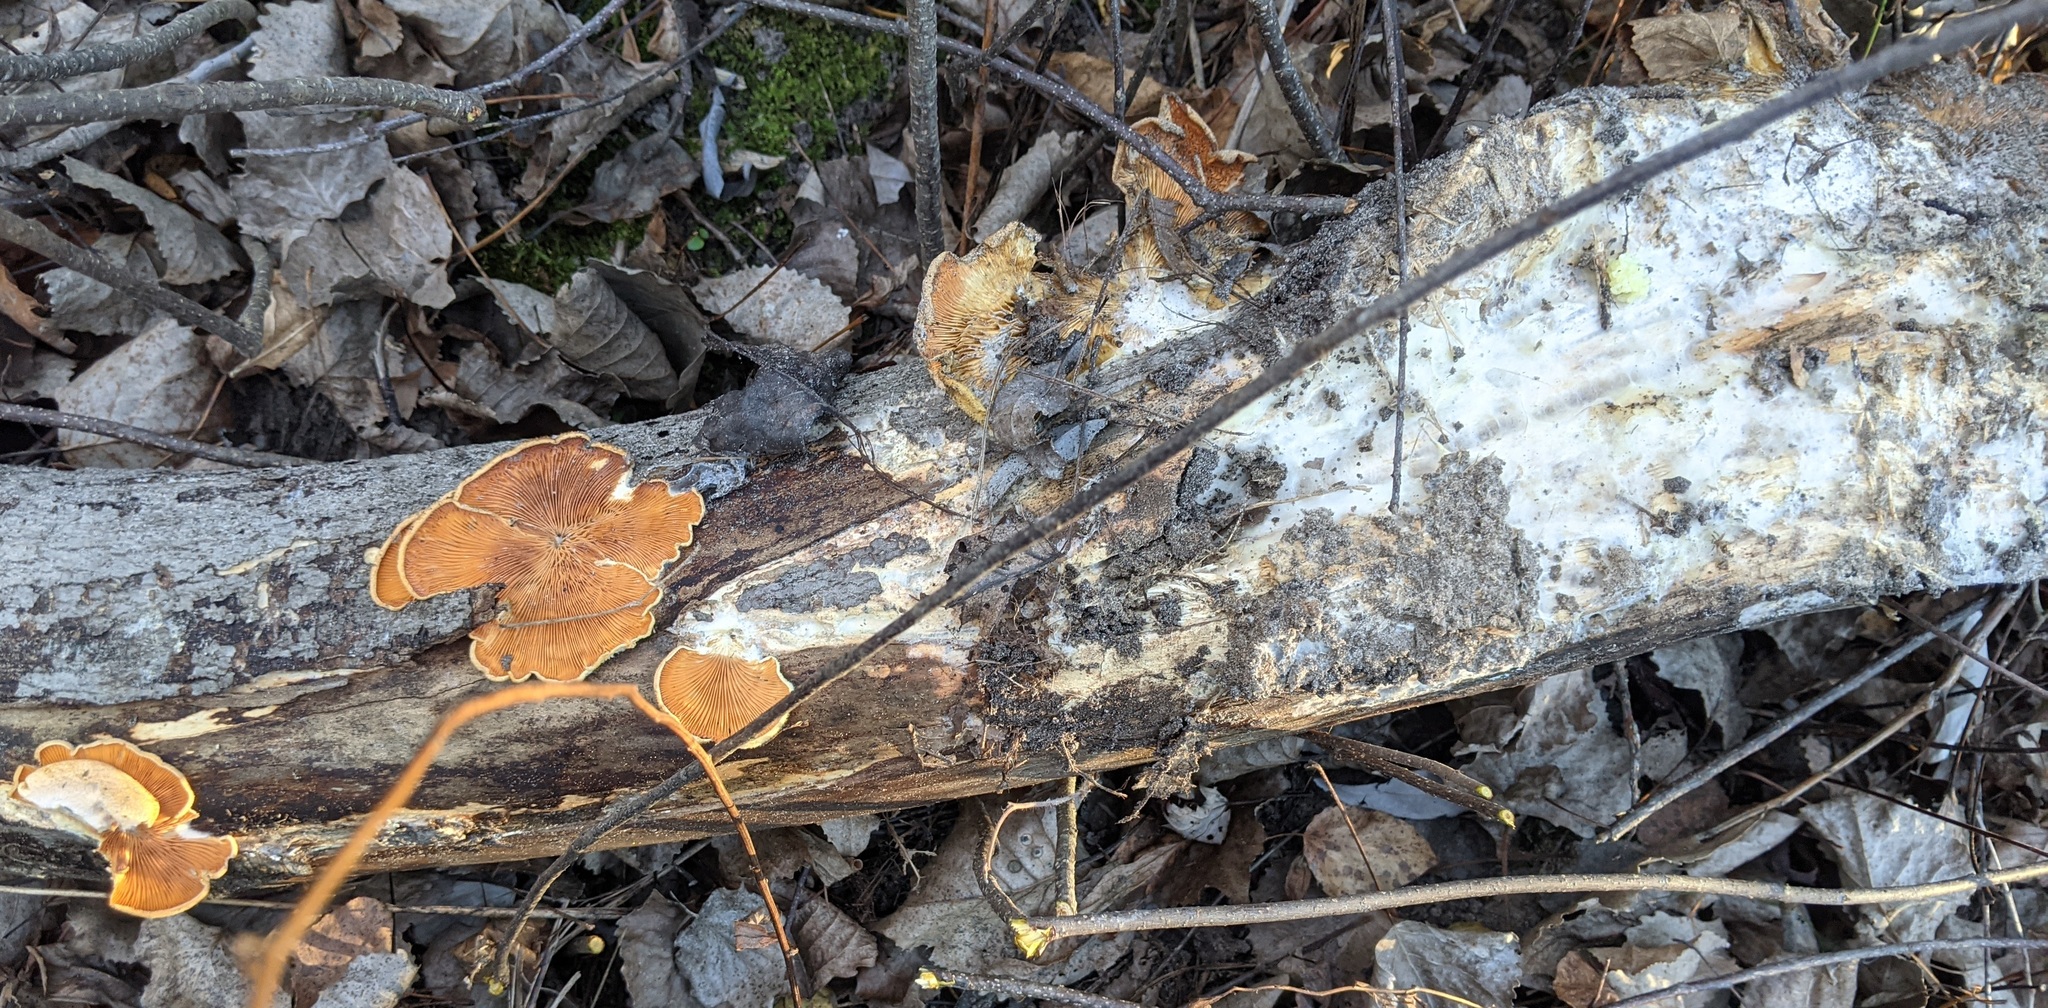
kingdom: Fungi
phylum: Basidiomycota
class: Agaricomycetes
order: Agaricales
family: Phyllotopsidaceae
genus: Phyllotopsis
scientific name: Phyllotopsis nidulans
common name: Orange mock oyster
